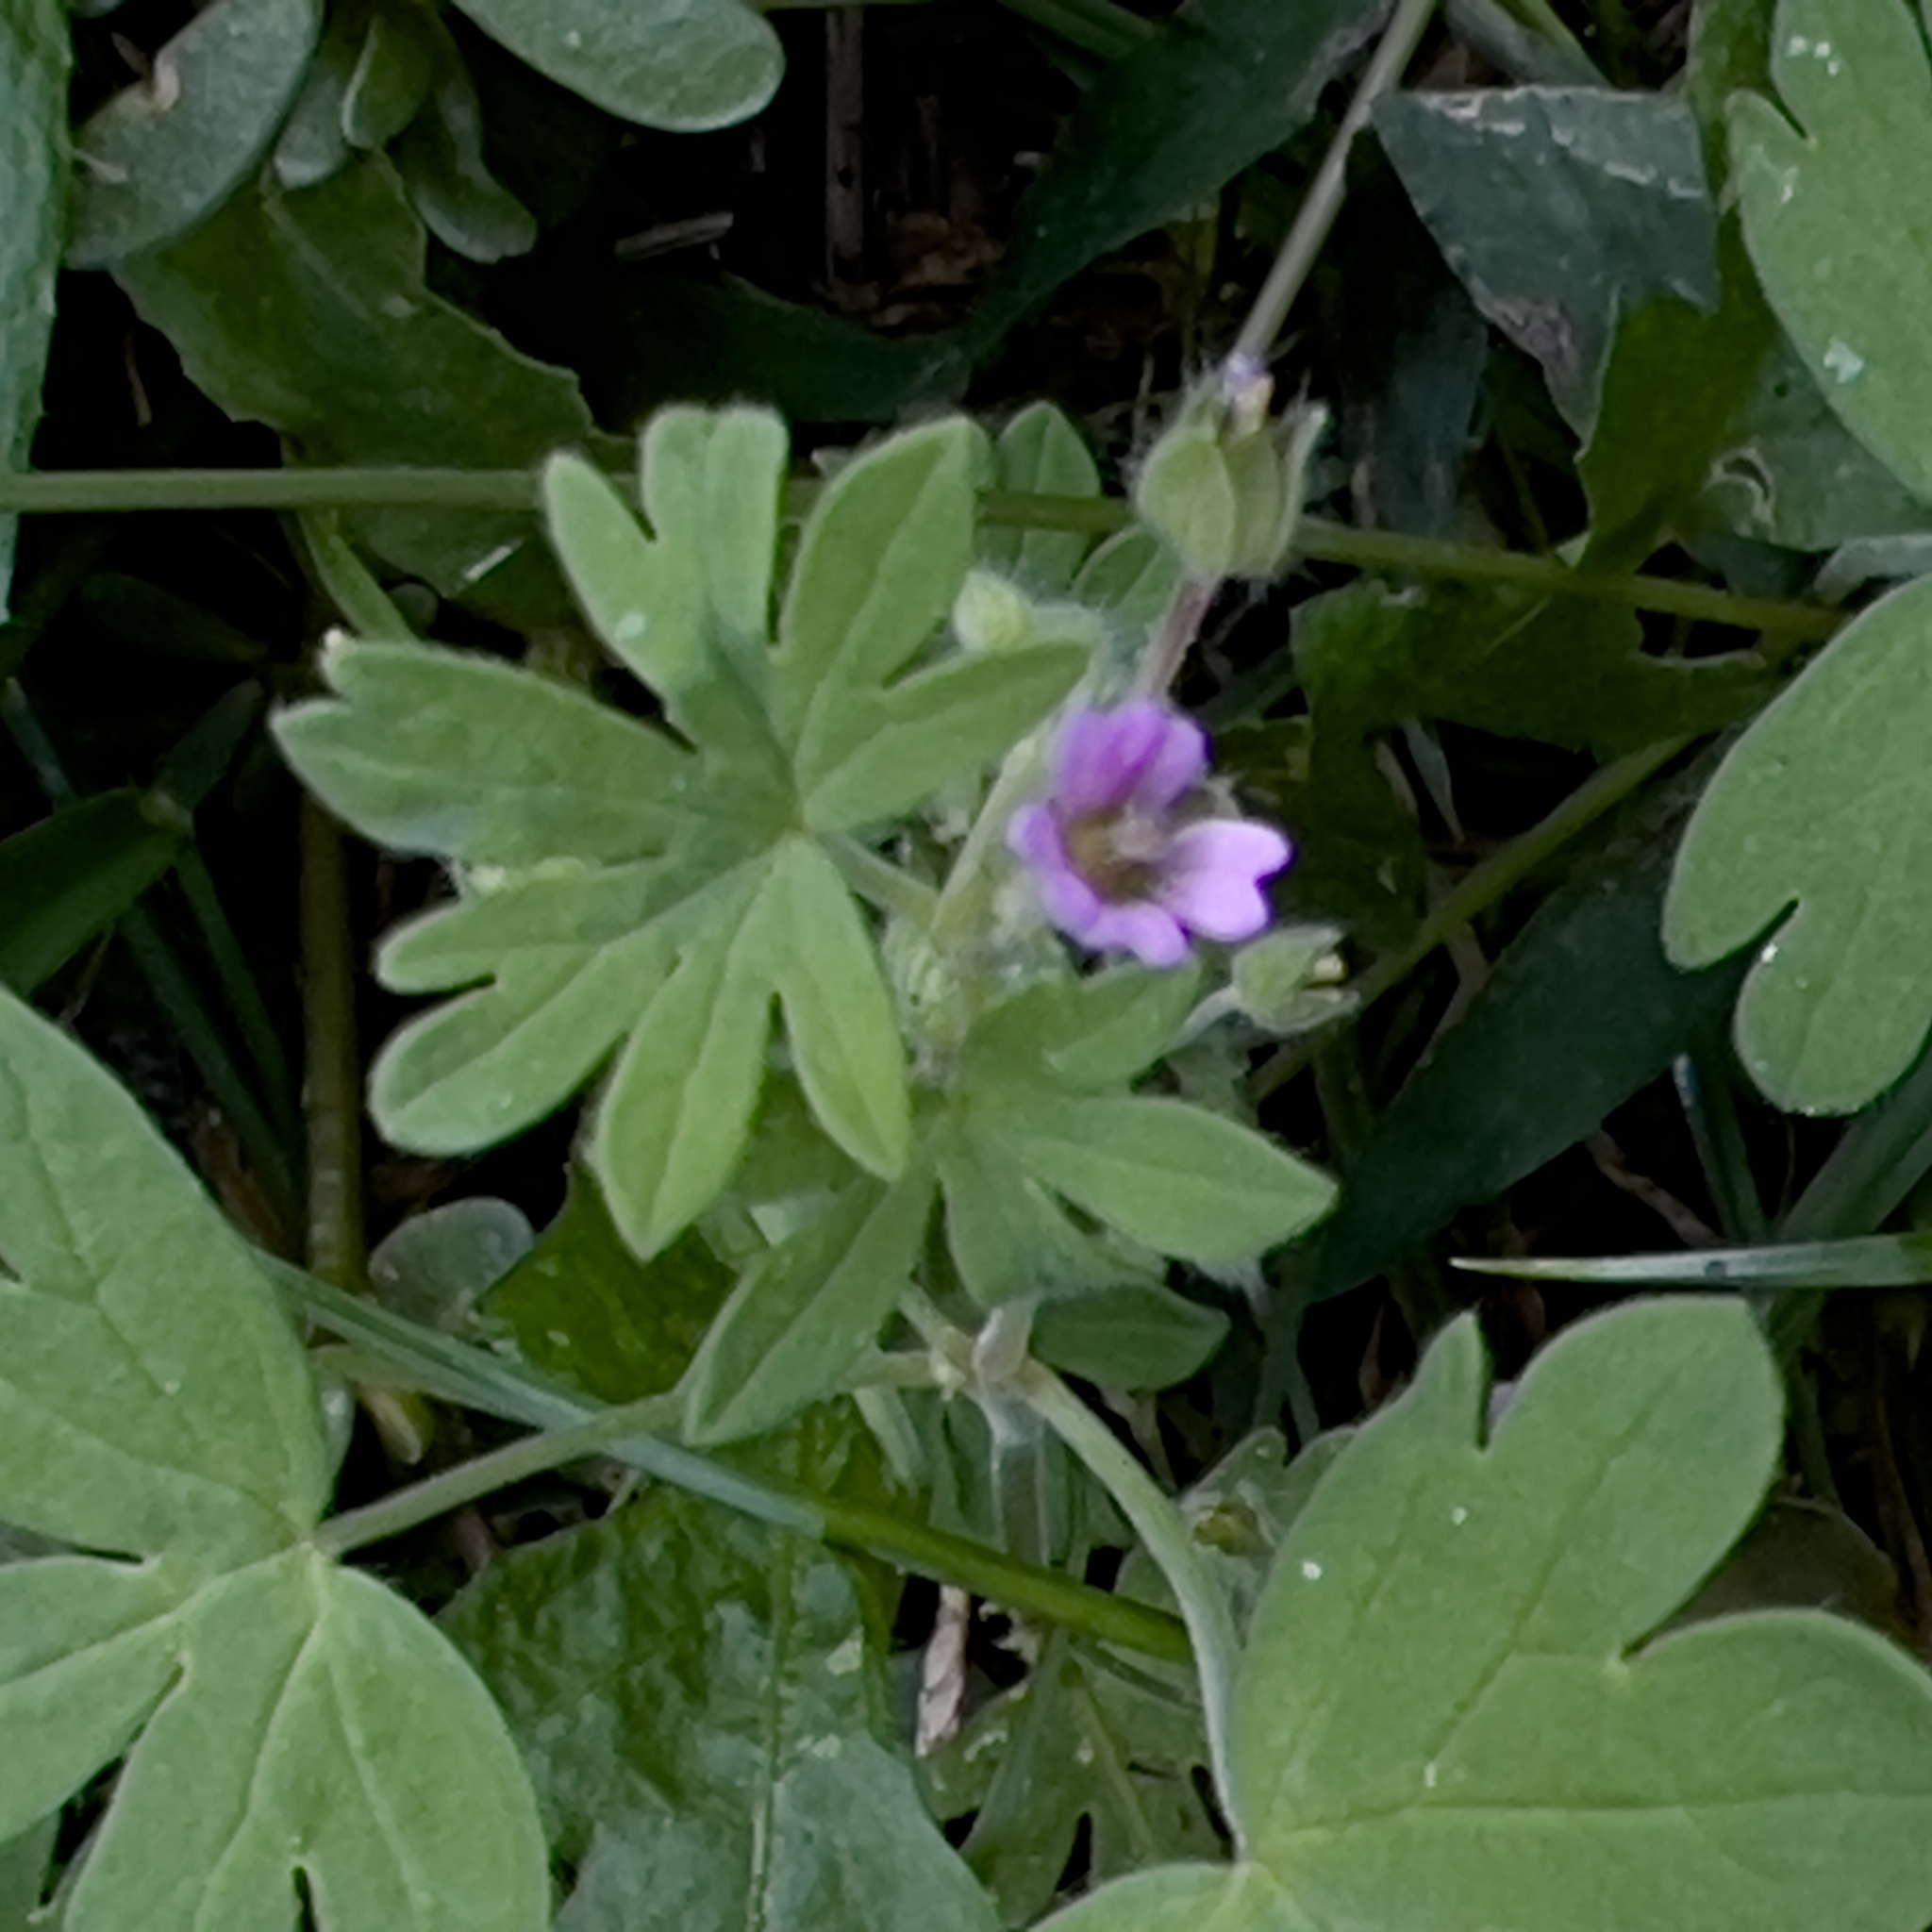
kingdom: Plantae
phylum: Tracheophyta
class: Magnoliopsida
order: Geraniales
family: Geraniaceae
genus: Geranium
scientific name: Geranium pusillum
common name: Small geranium
